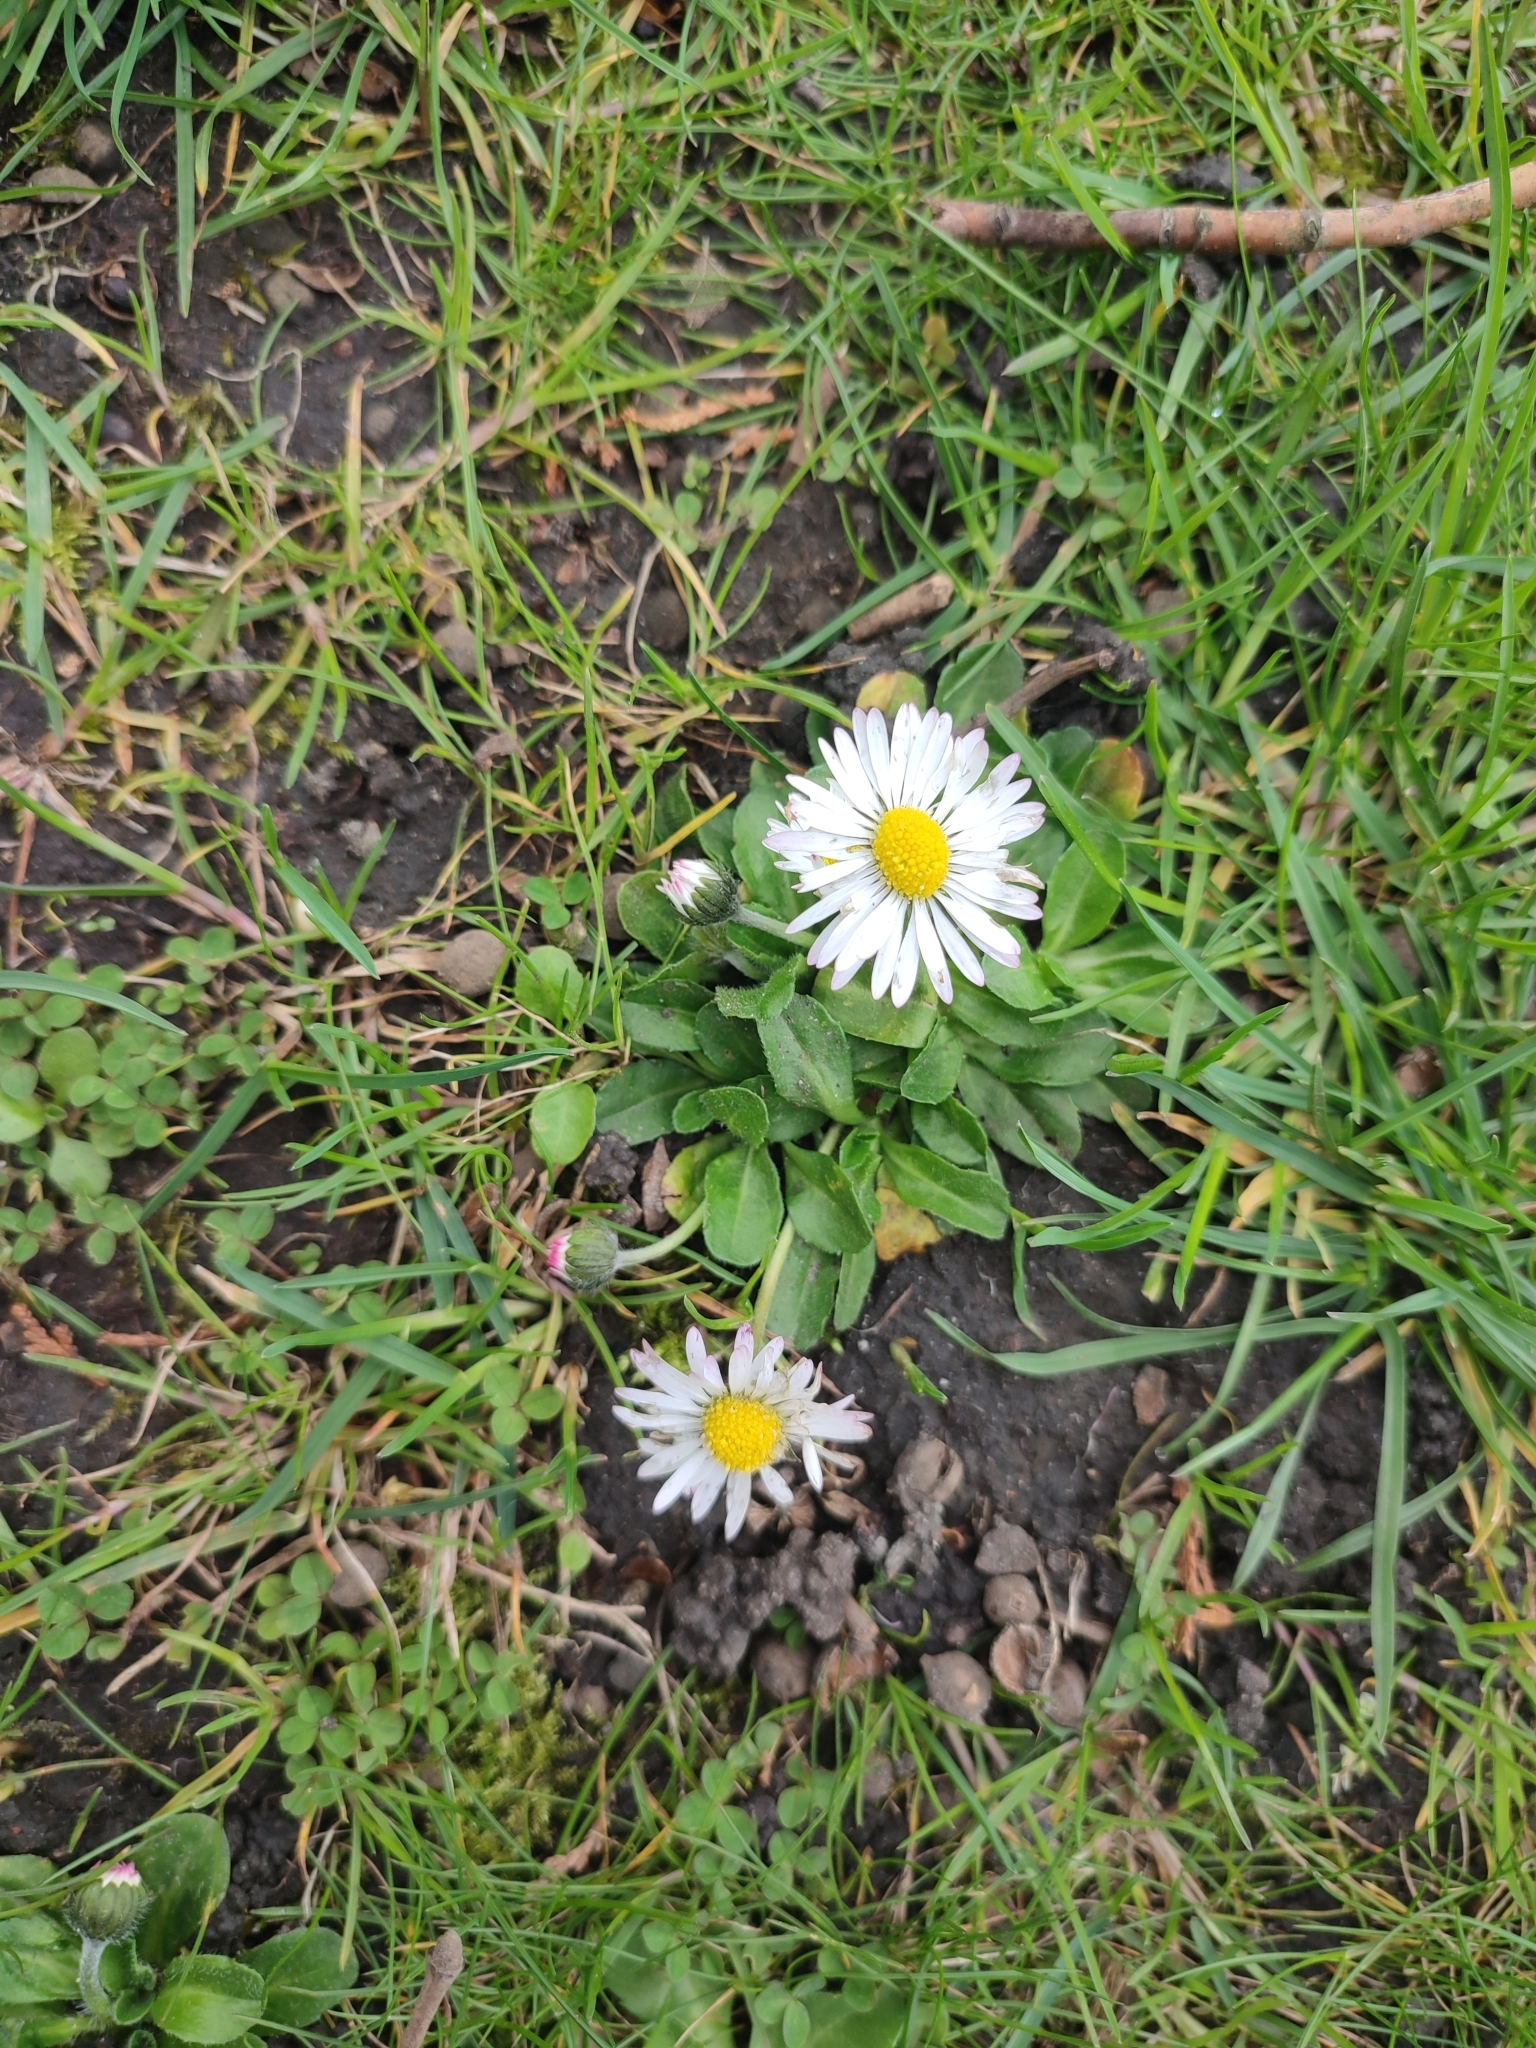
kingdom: Plantae
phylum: Tracheophyta
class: Magnoliopsida
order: Asterales
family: Asteraceae
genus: Bellis
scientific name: Bellis perennis
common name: Lawndaisy
